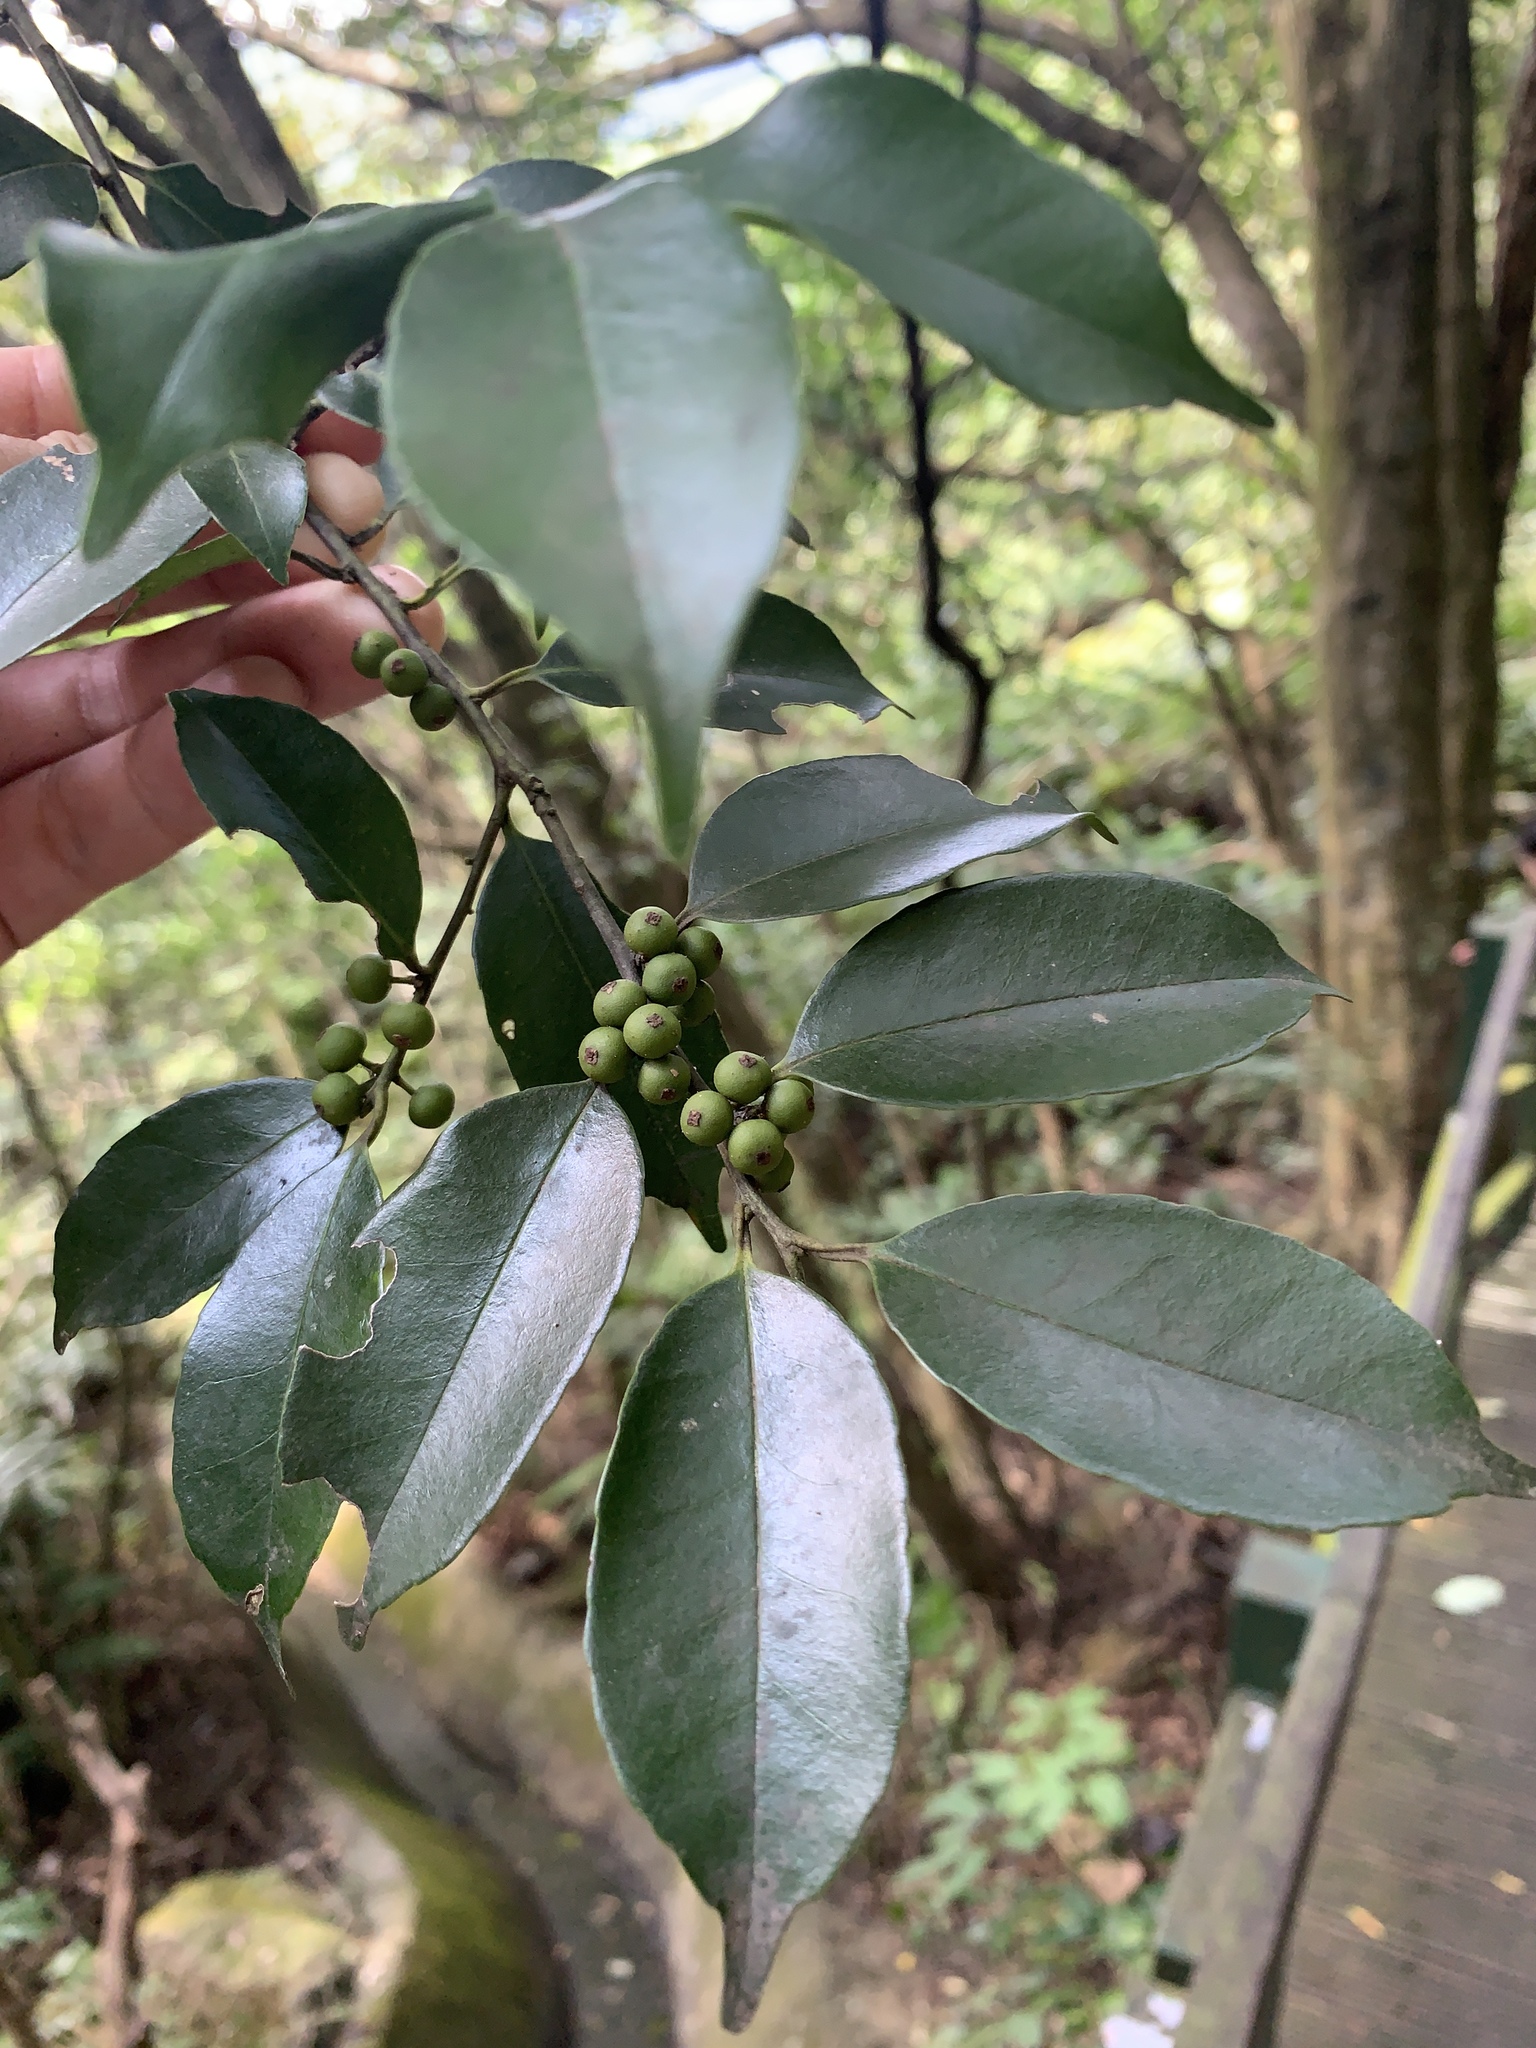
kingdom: Plantae
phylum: Tracheophyta
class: Magnoliopsida
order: Aquifoliales
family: Aquifoliaceae
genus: Ilex
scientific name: Ilex ficoidea
